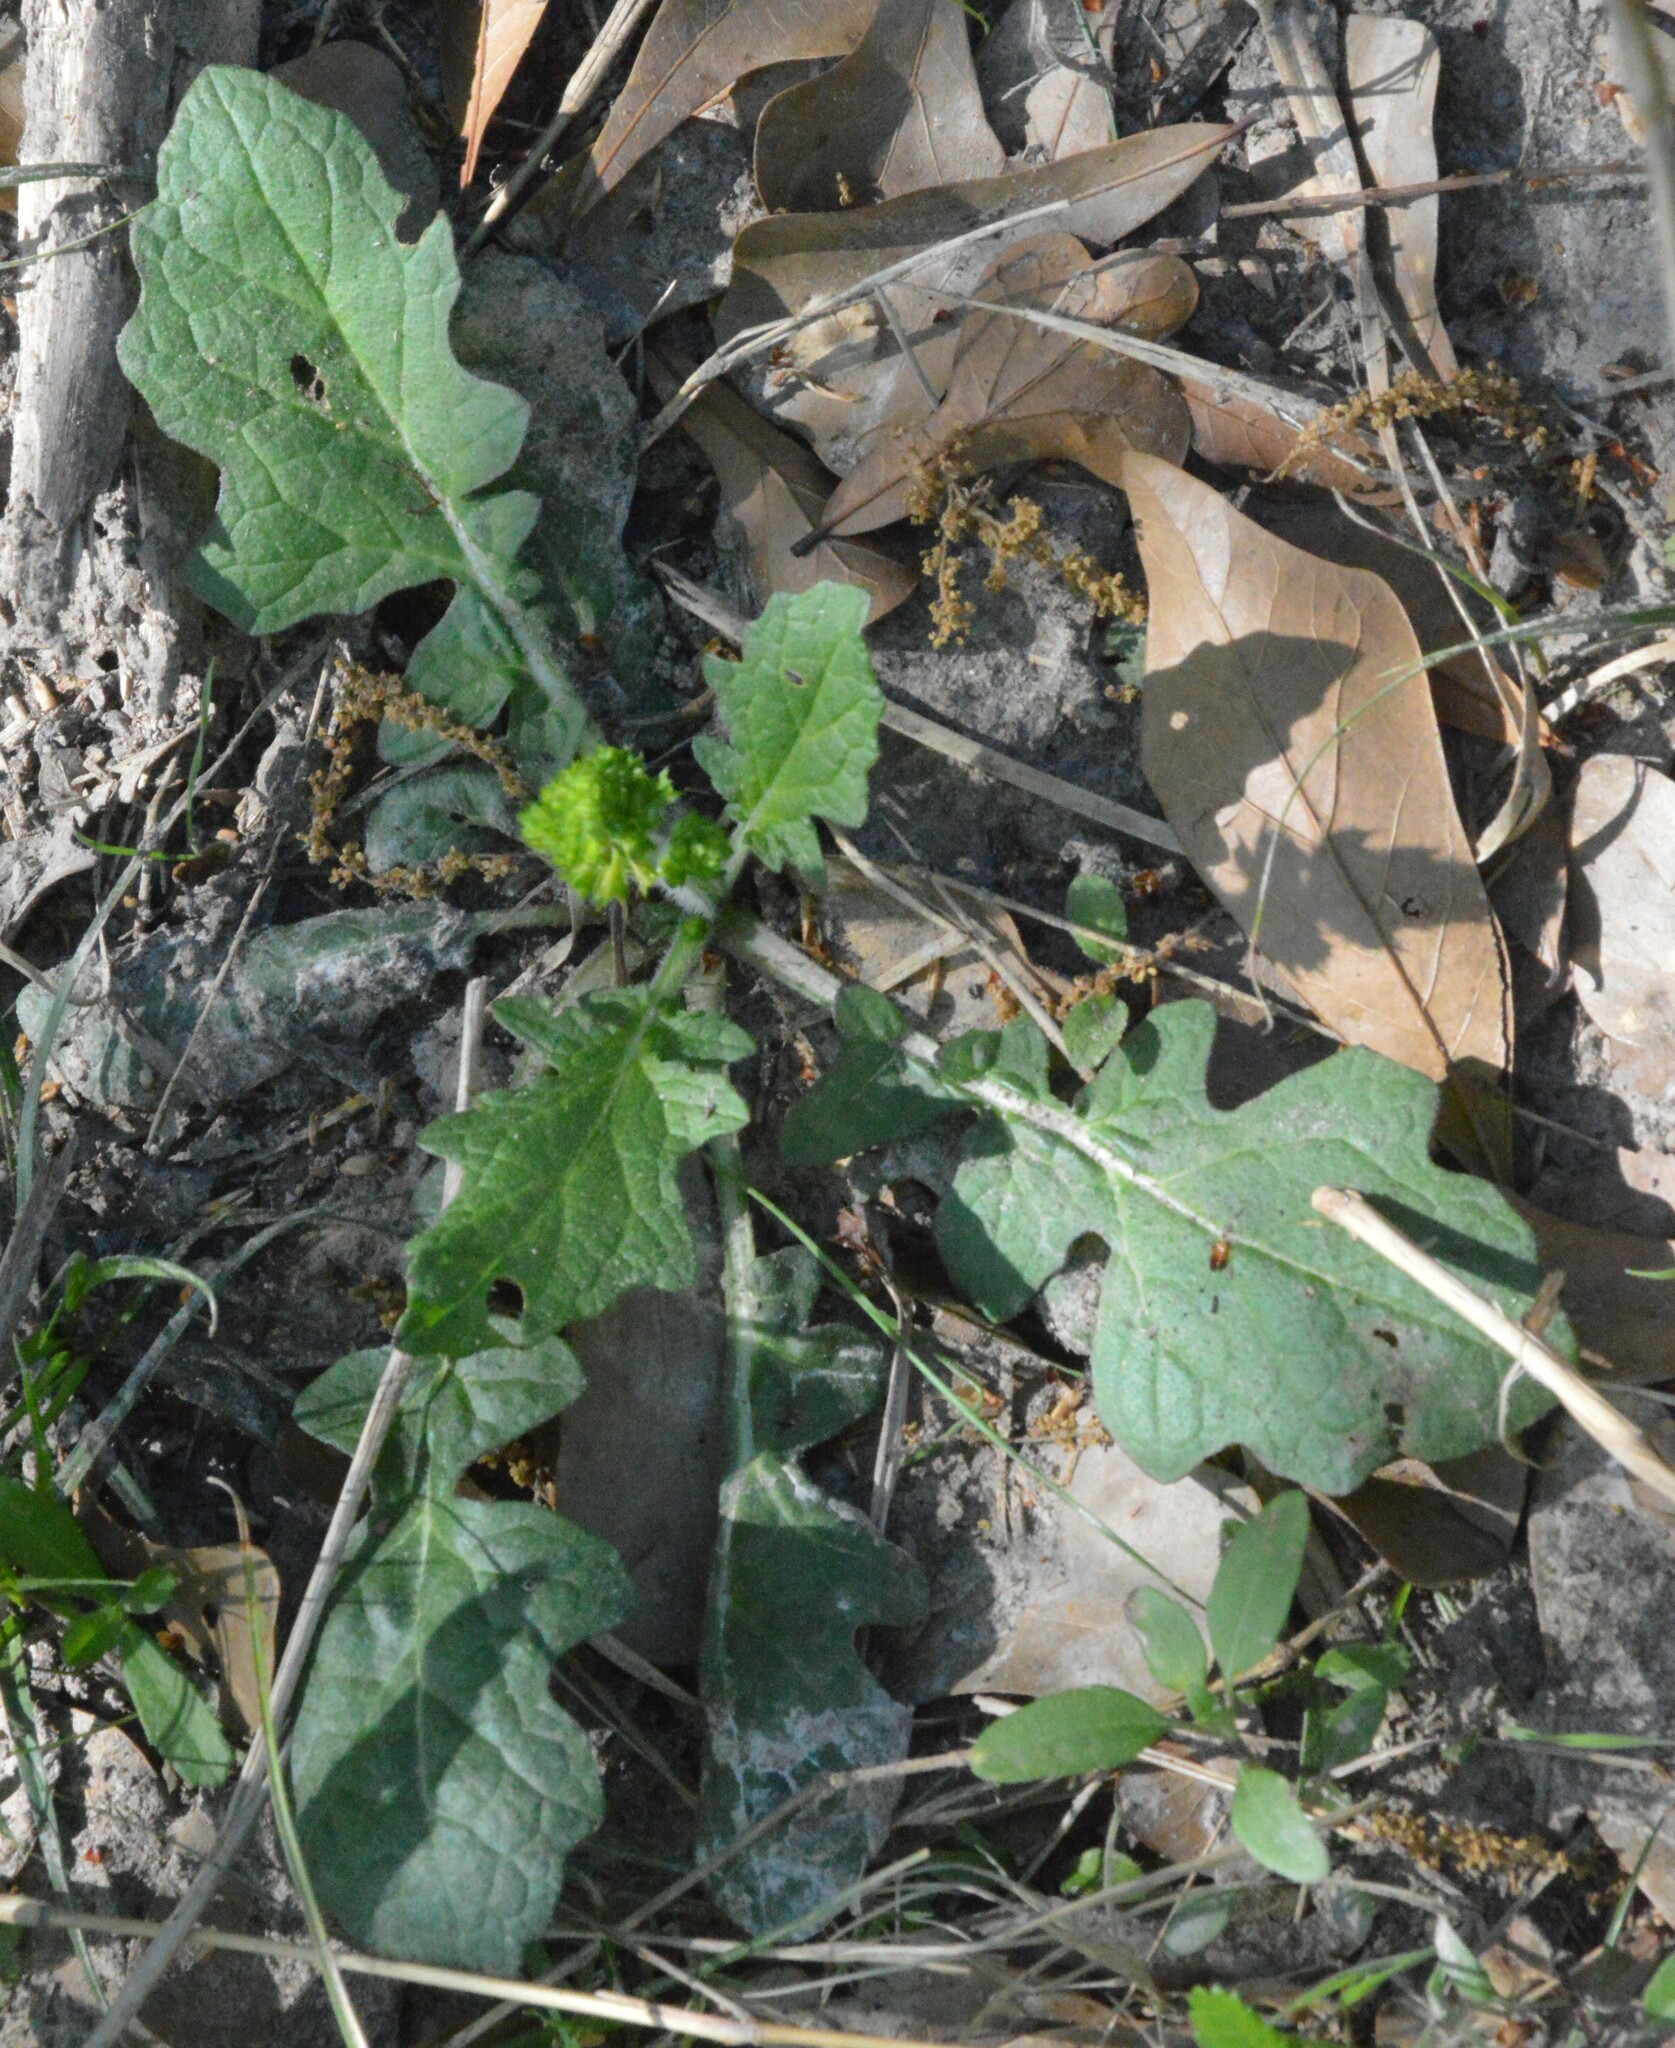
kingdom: Plantae
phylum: Tracheophyta
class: Magnoliopsida
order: Lamiales
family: Lamiaceae
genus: Salvia
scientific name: Salvia lyrata
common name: Cancerweed
